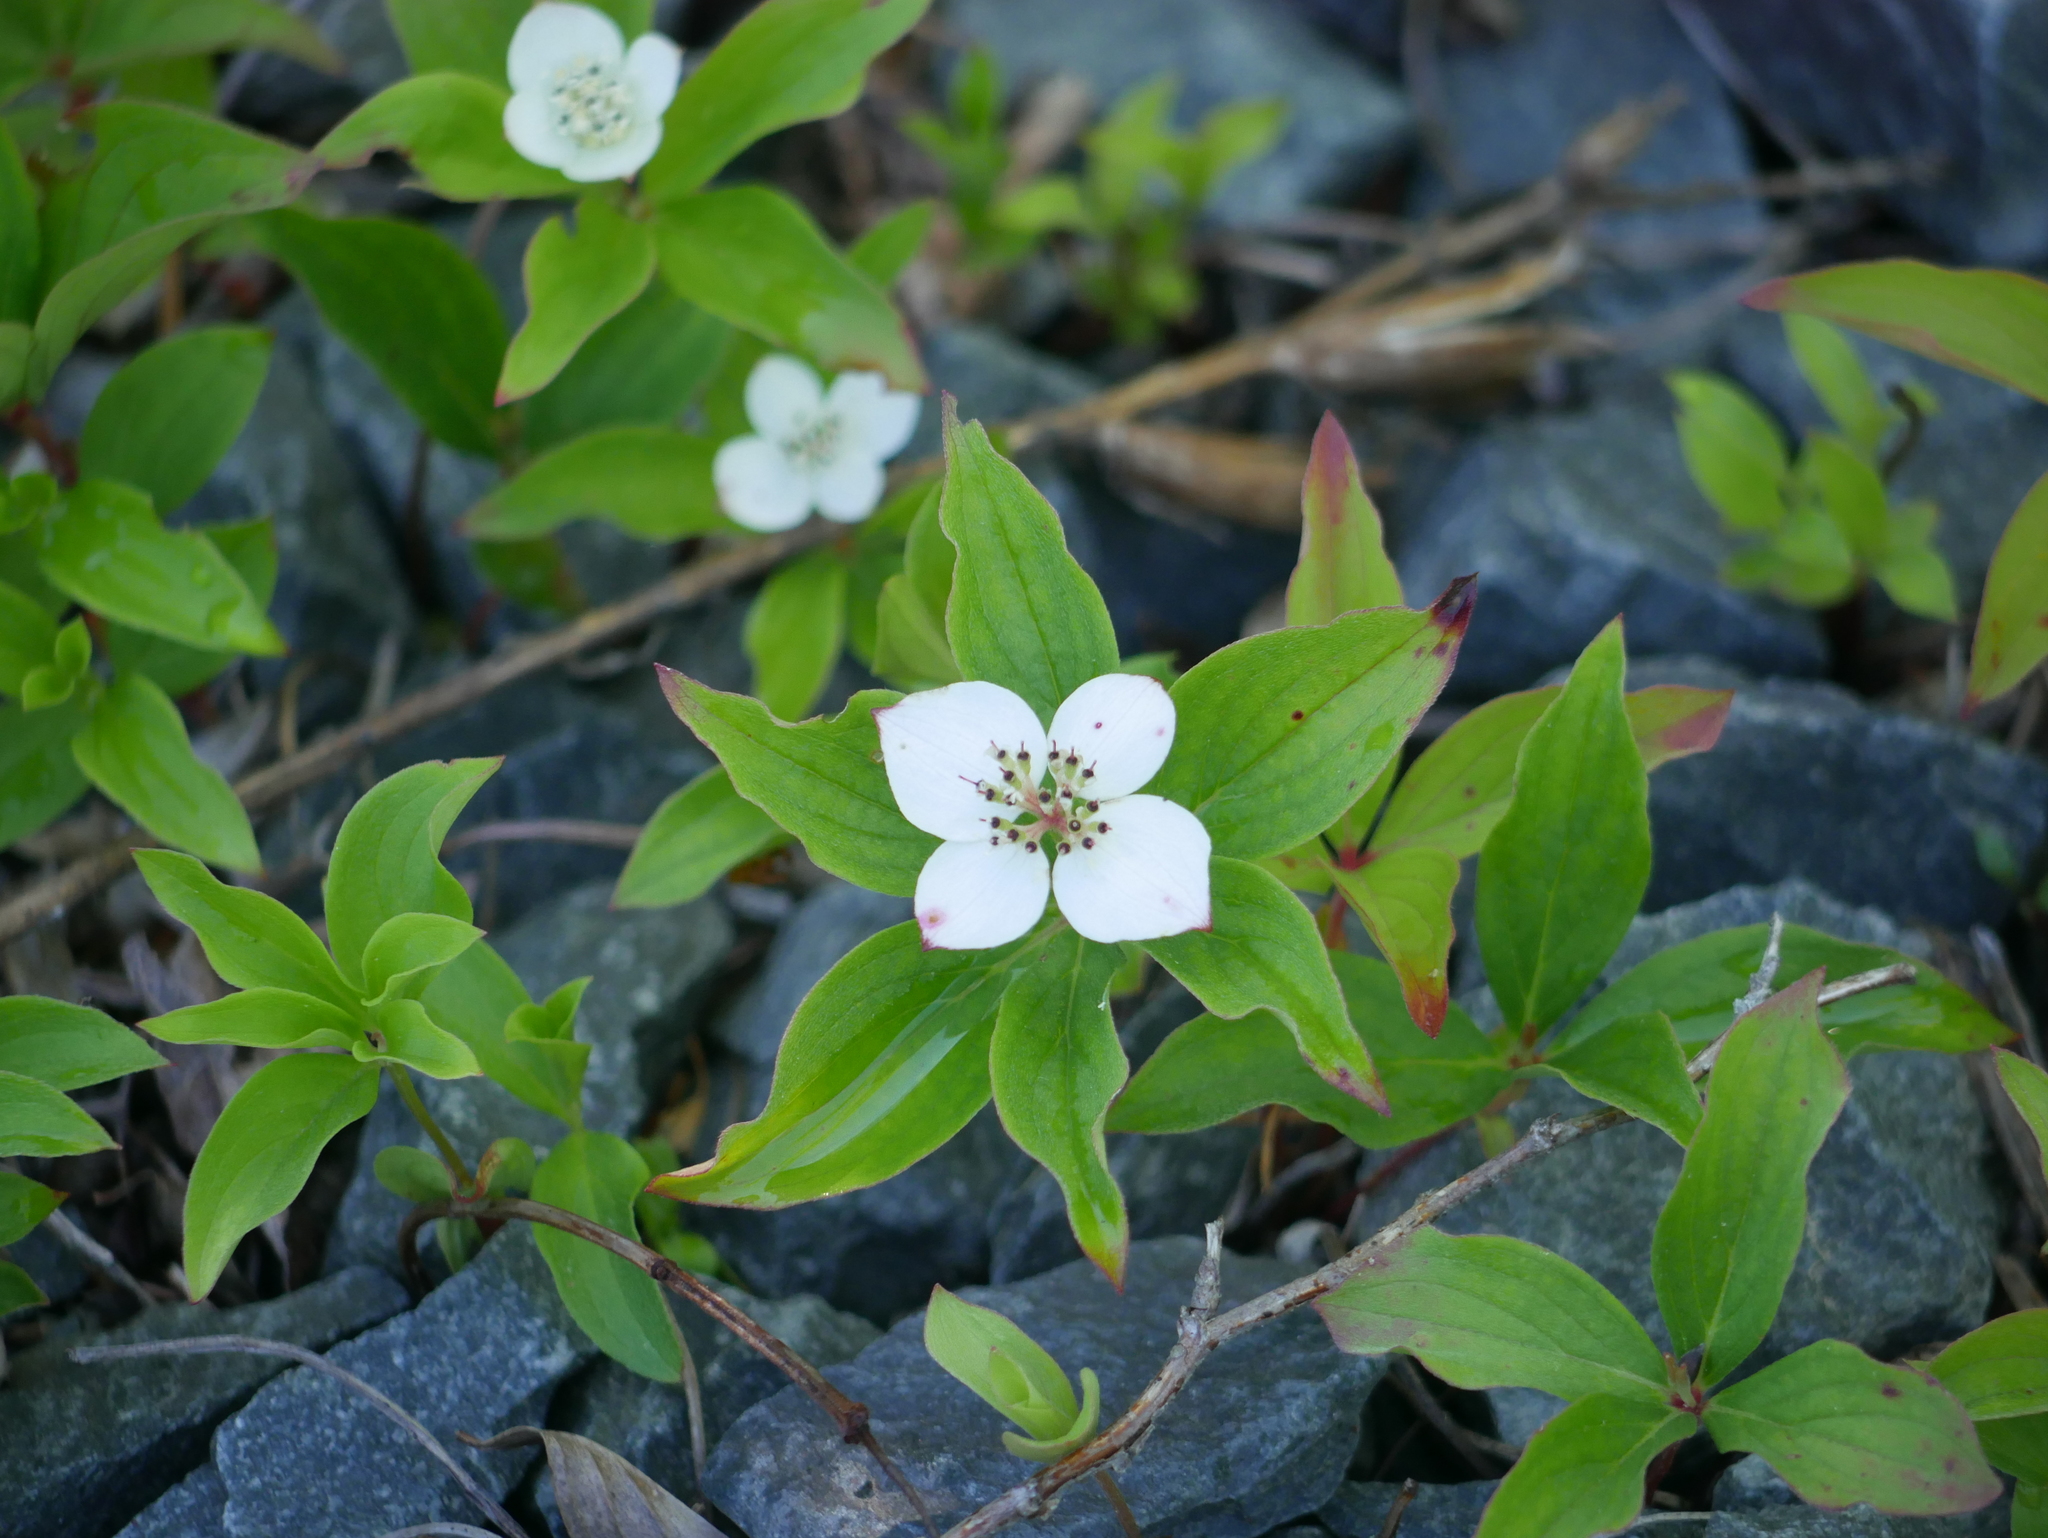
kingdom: Plantae
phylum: Tracheophyta
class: Magnoliopsida
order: Cornales
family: Cornaceae
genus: Cornus
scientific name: Cornus canadensis
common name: Creeping dogwood
